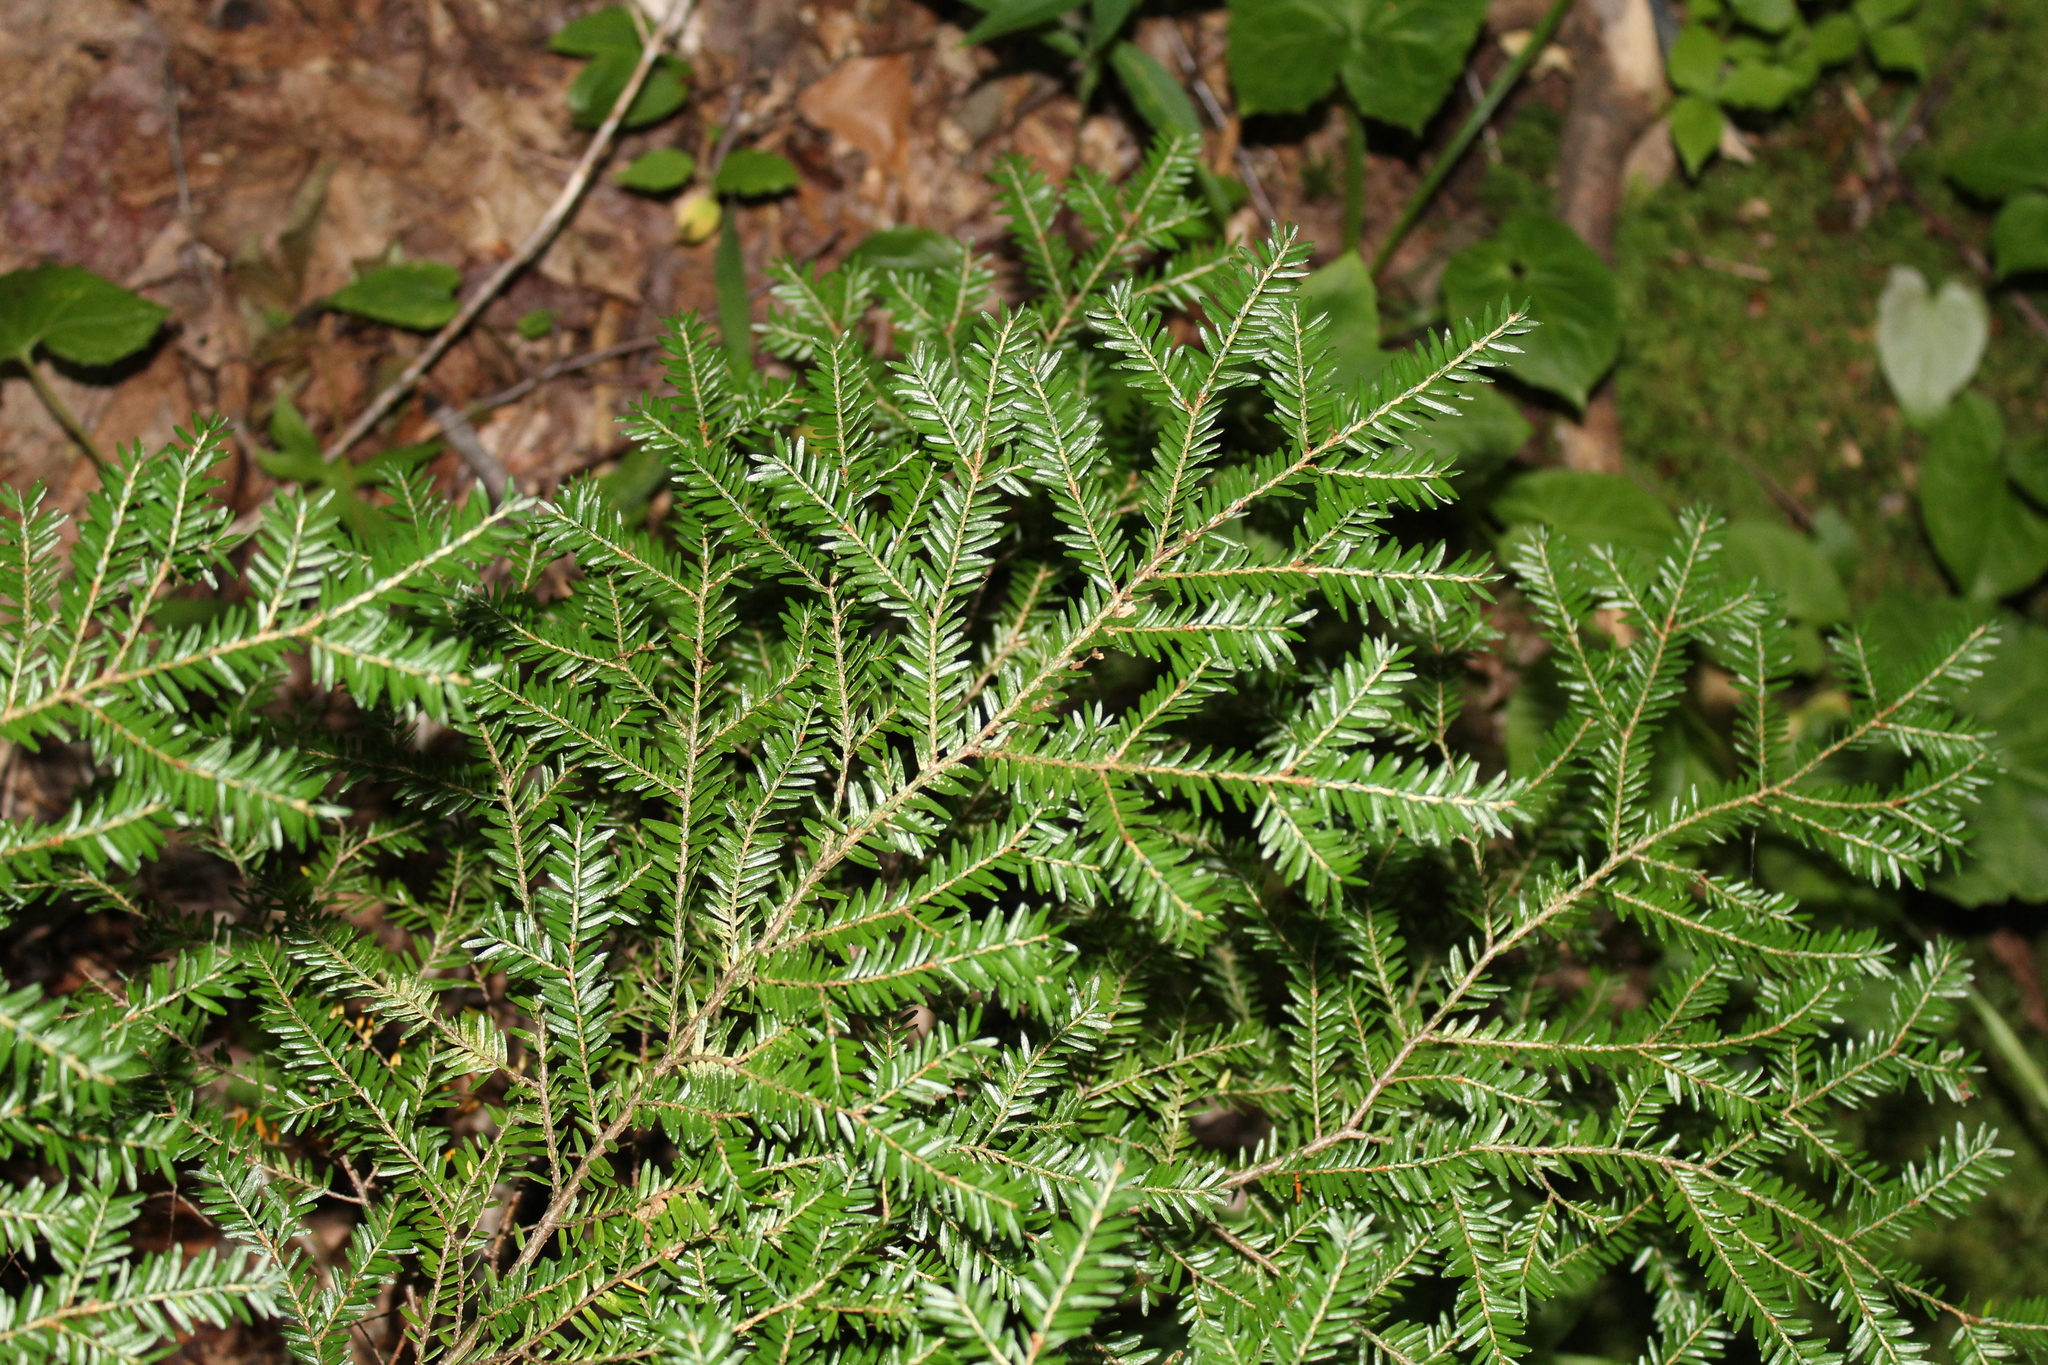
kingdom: Plantae
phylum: Tracheophyta
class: Pinopsida
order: Pinales
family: Pinaceae
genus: Tsuga
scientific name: Tsuga canadensis
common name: Eastern hemlock
